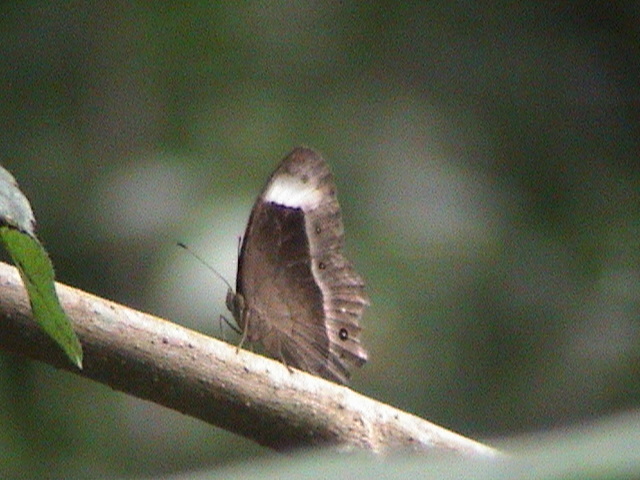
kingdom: Animalia
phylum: Arthropoda
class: Insecta
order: Lepidoptera
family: Nymphalidae
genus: Mycalesis
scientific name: Mycalesis anaxias
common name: White-bar bushbrown
